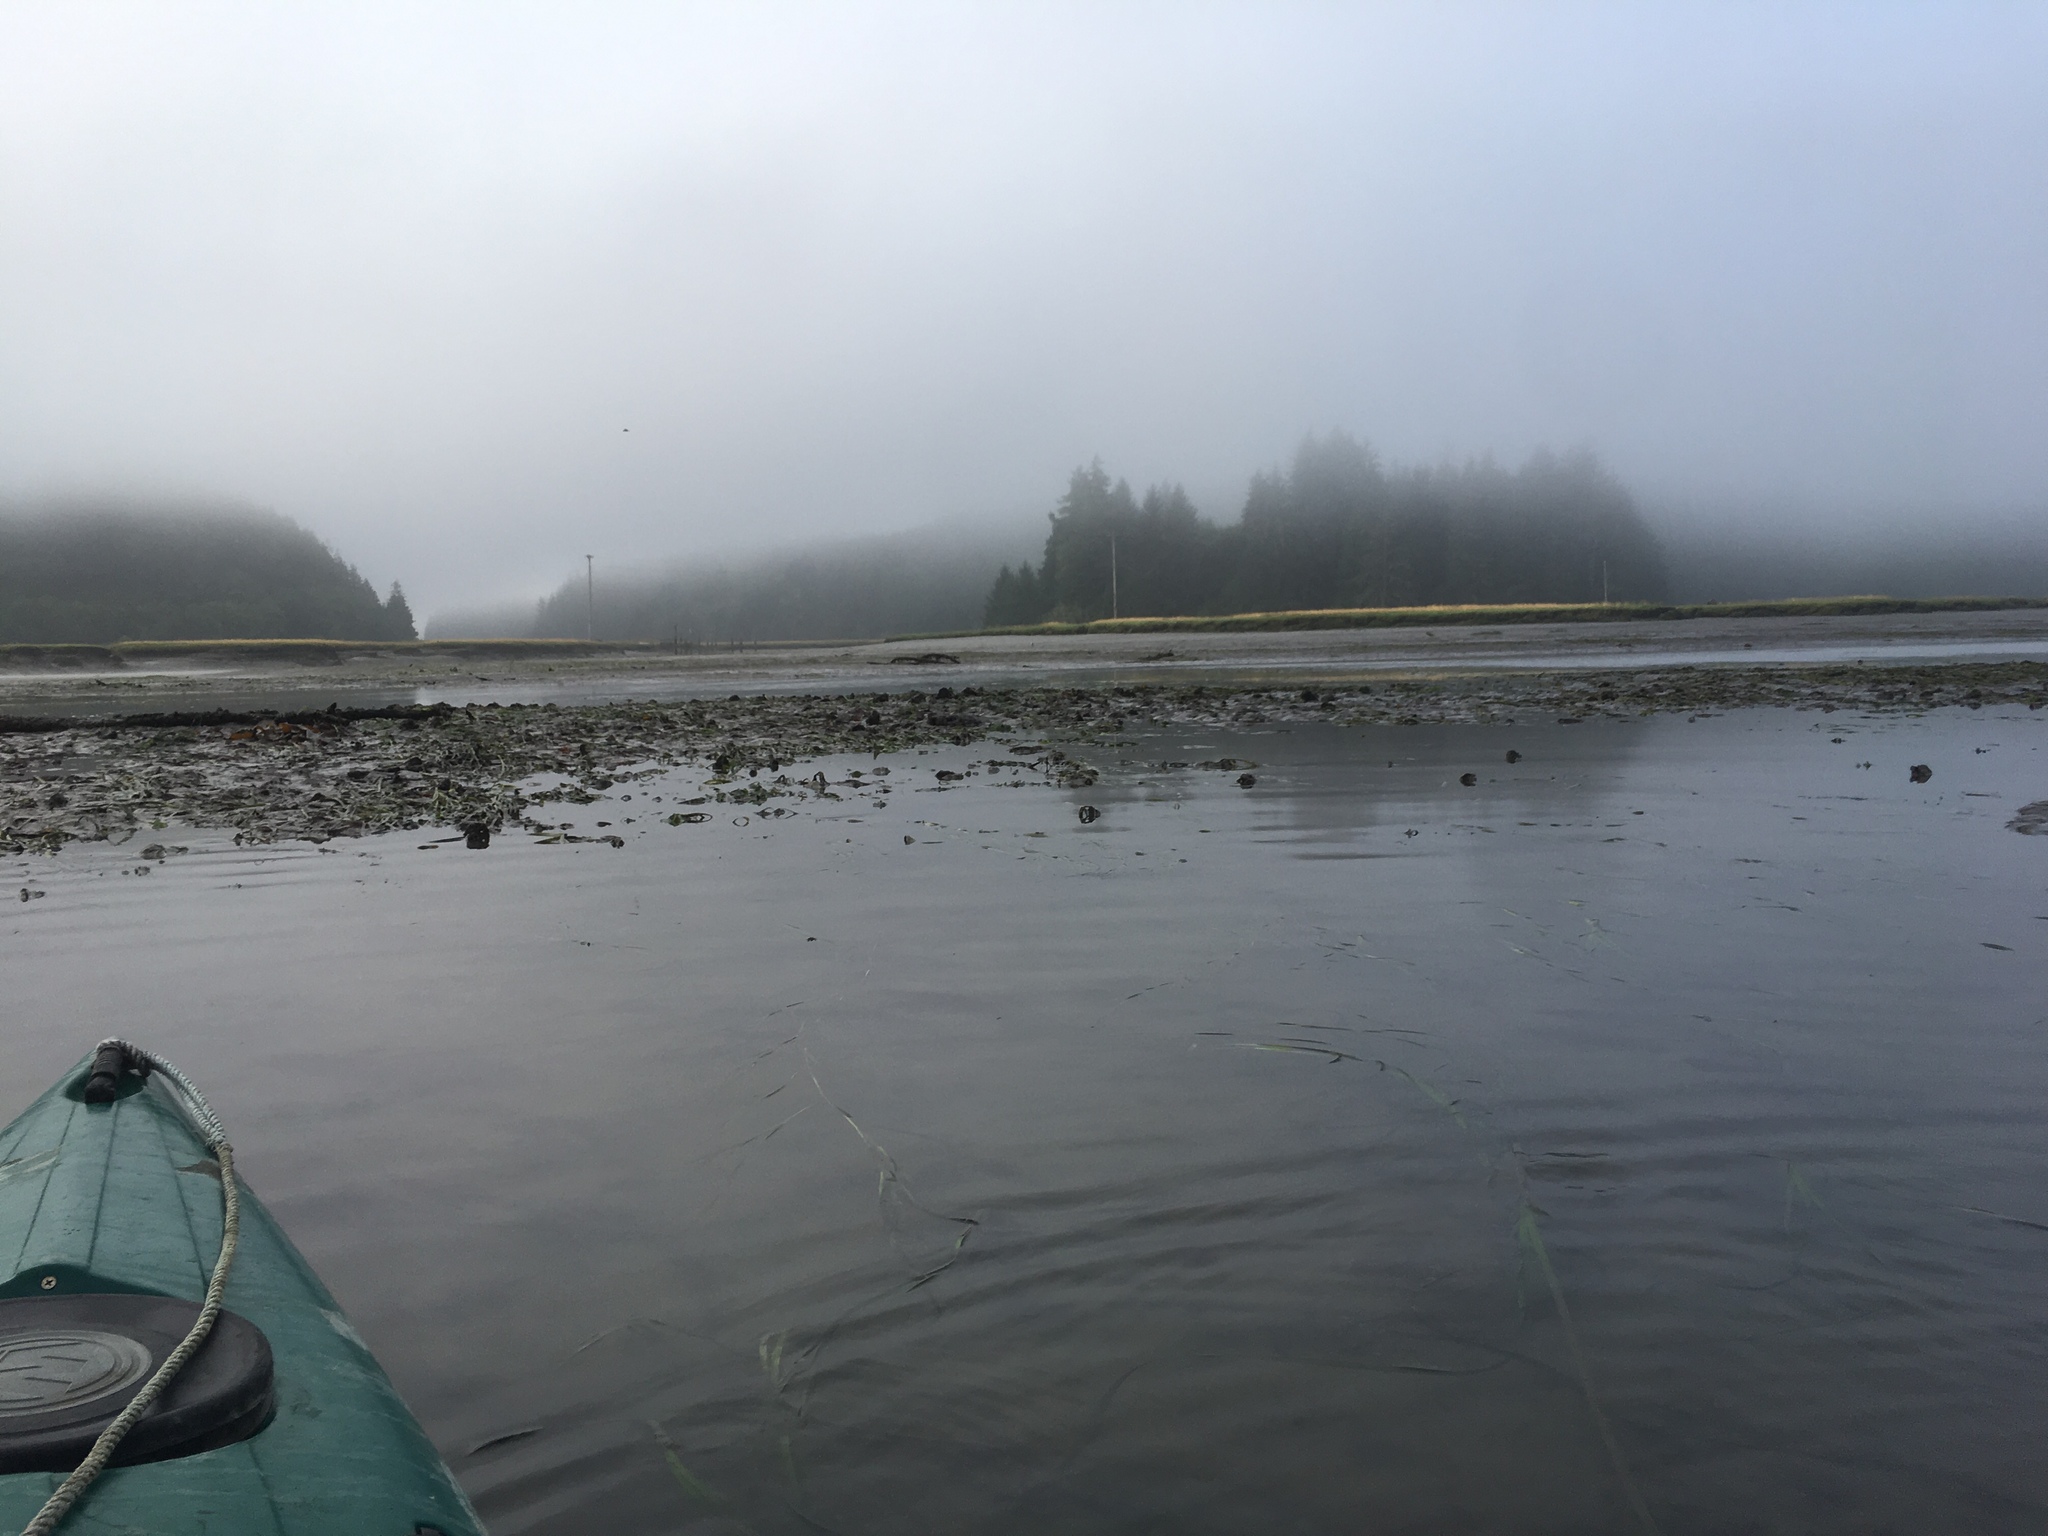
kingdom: Plantae
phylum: Tracheophyta
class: Liliopsida
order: Alismatales
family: Zosteraceae
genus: Zostera
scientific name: Zostera marina
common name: Eelgrass
